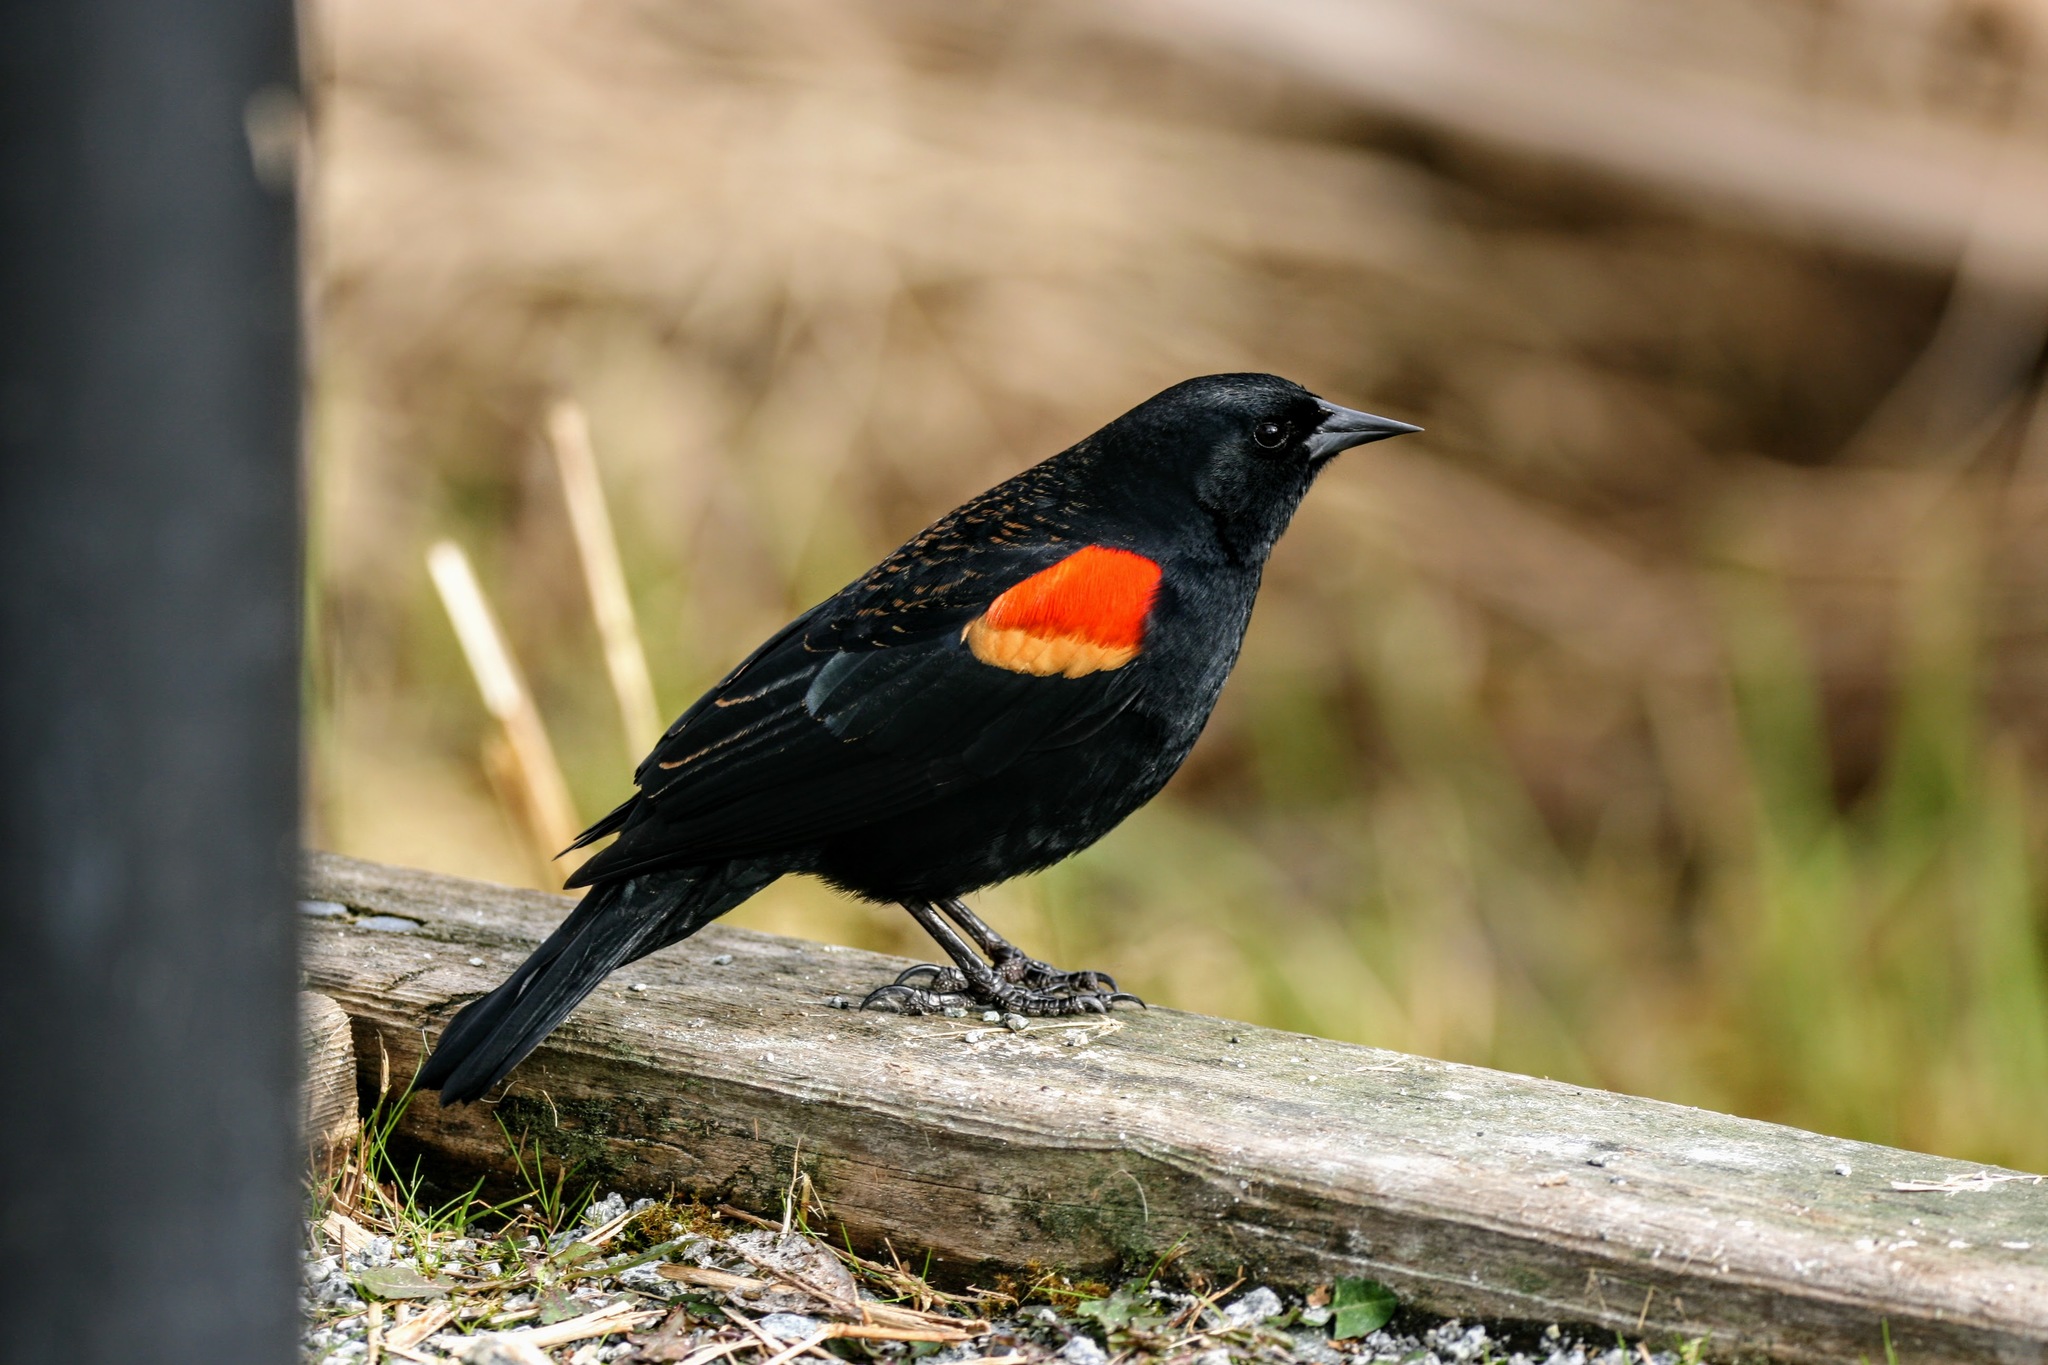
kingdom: Animalia
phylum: Chordata
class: Aves
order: Passeriformes
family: Icteridae
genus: Agelaius
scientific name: Agelaius phoeniceus
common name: Red-winged blackbird
